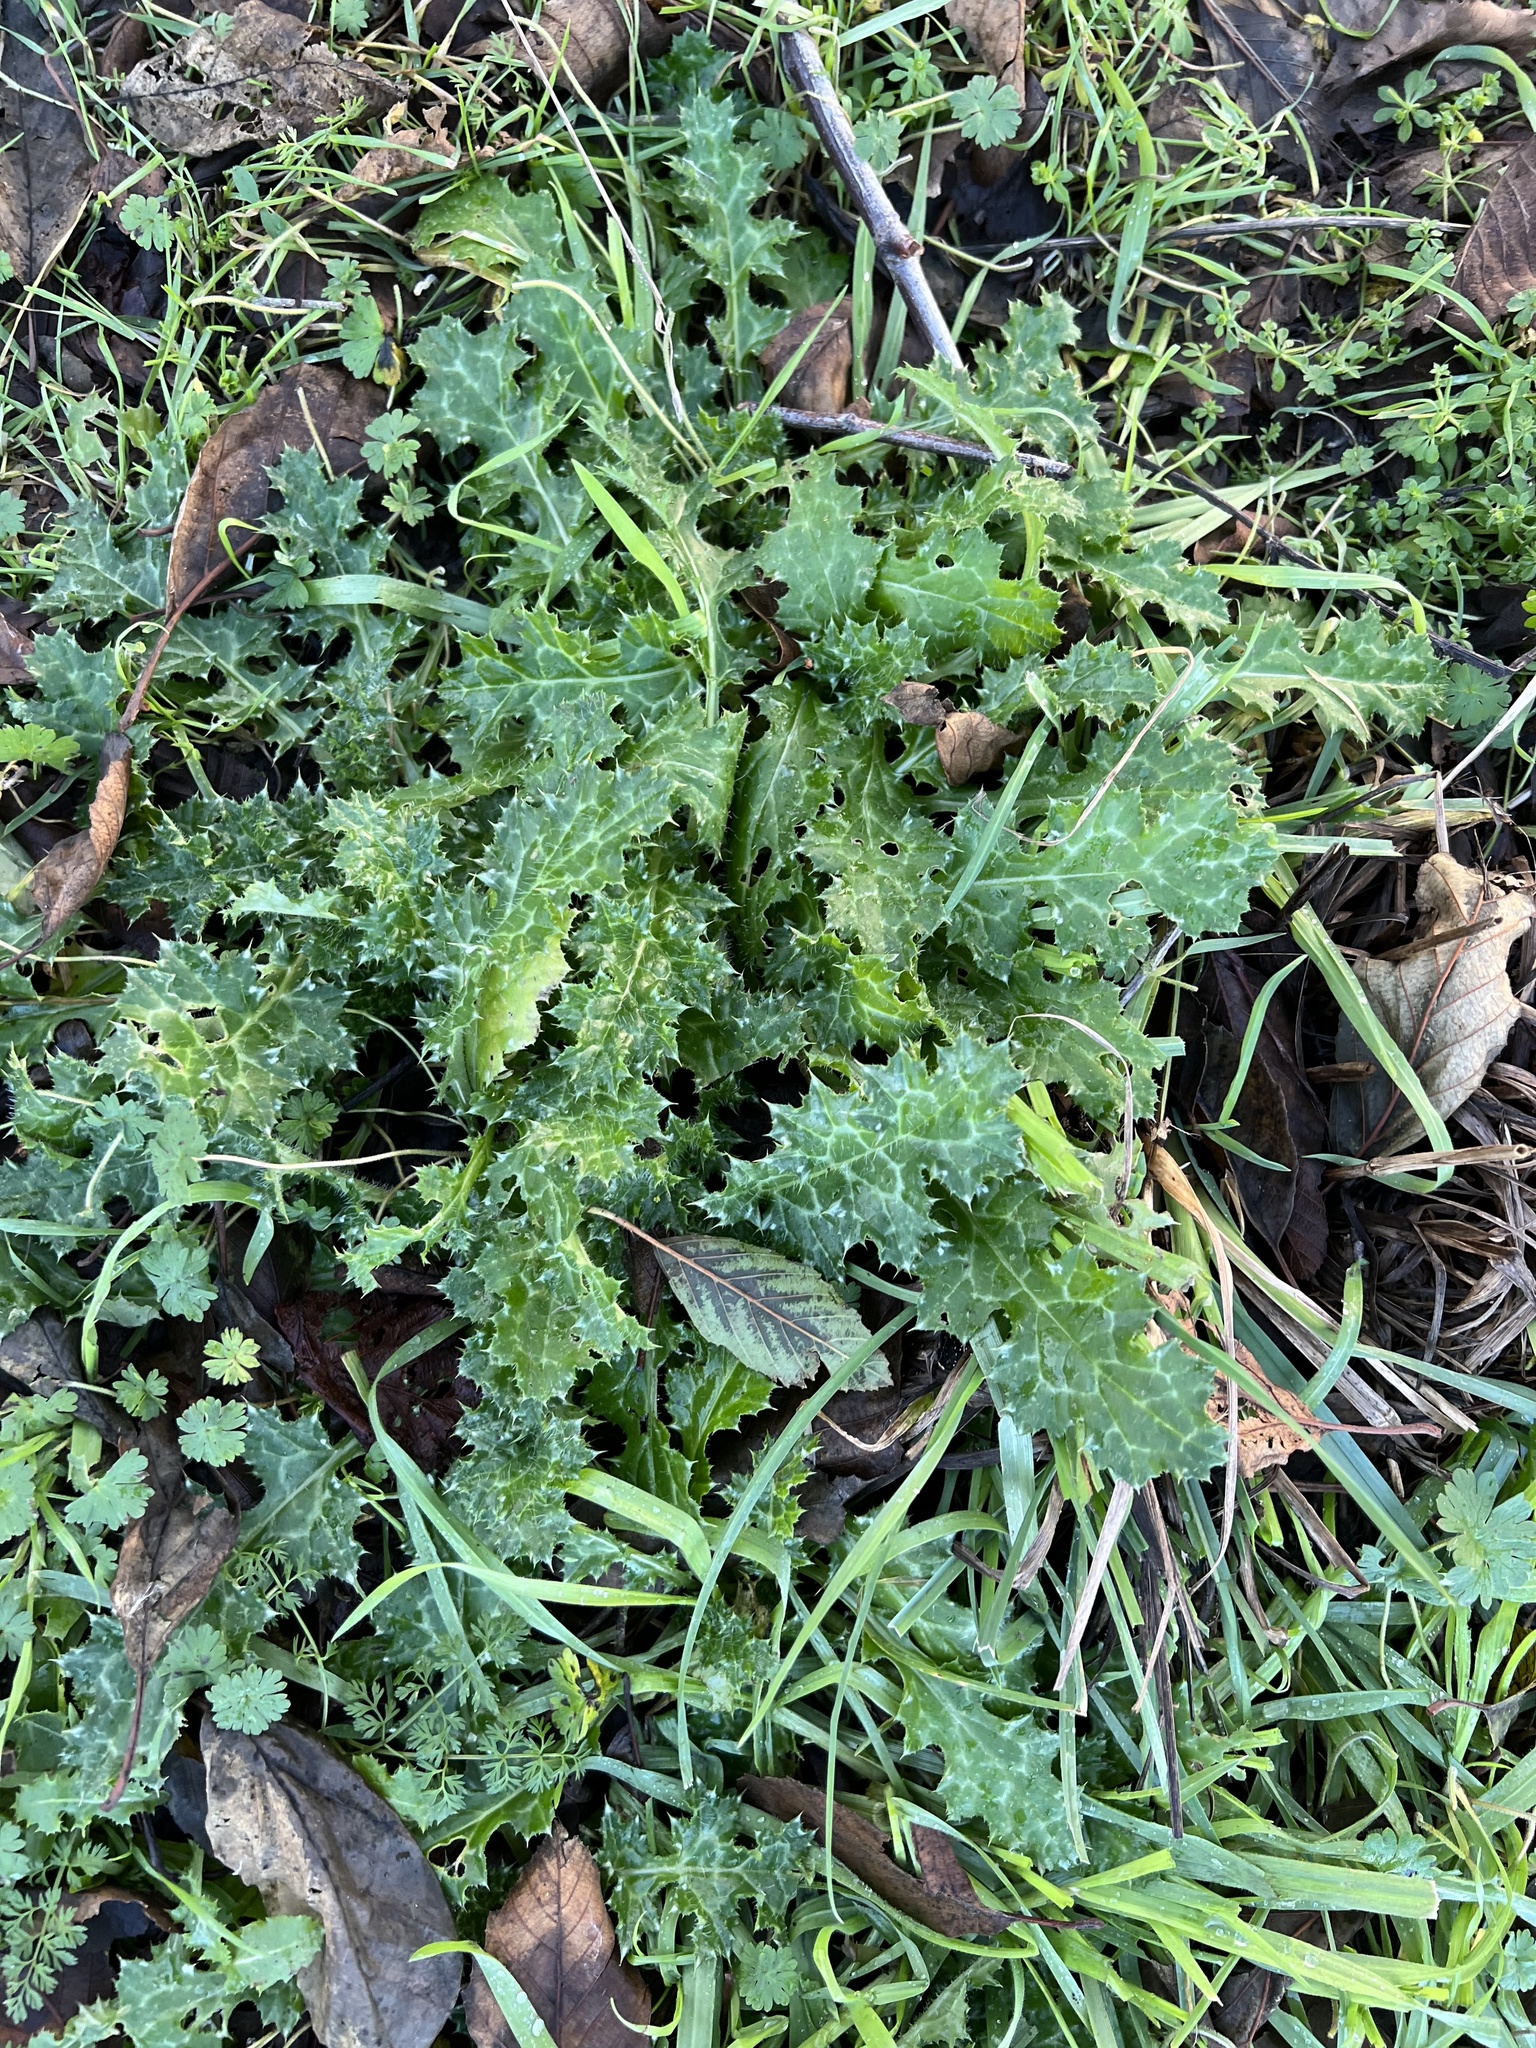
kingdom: Plantae
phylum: Tracheophyta
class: Magnoliopsida
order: Asterales
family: Asteraceae
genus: Carduus
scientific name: Carduus pycnocephalus
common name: Plymouth thistle
